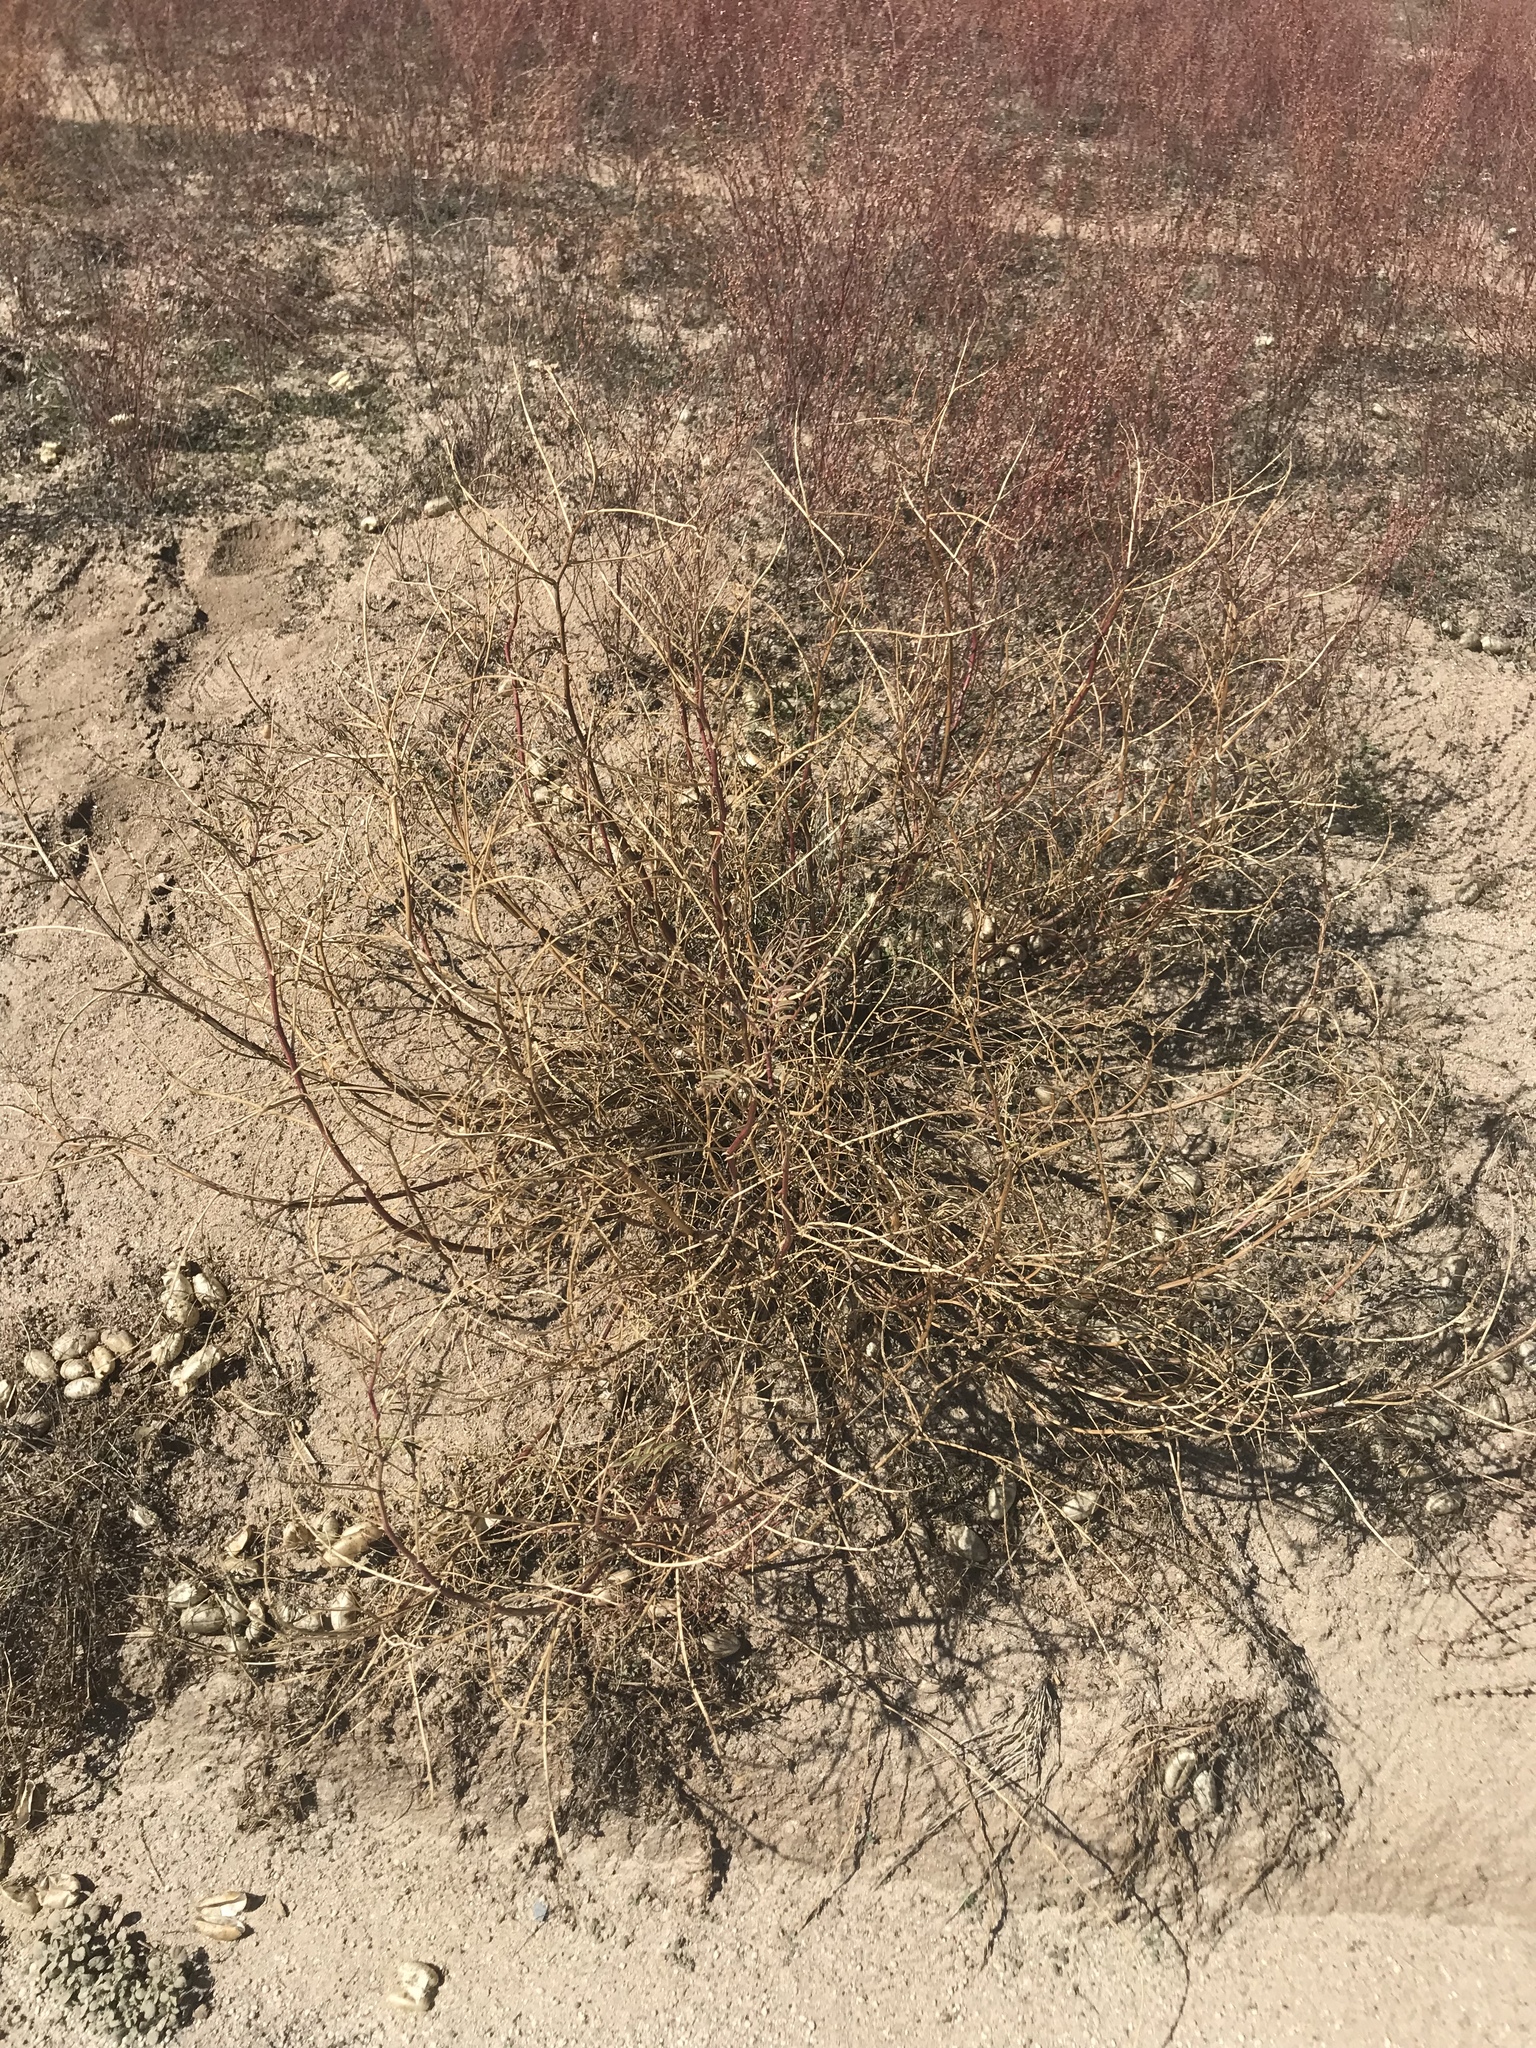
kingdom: Plantae
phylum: Tracheophyta
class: Magnoliopsida
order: Fabales
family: Fabaceae
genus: Astragalus
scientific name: Astragalus douglasii
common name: Jacumba milkvetch
